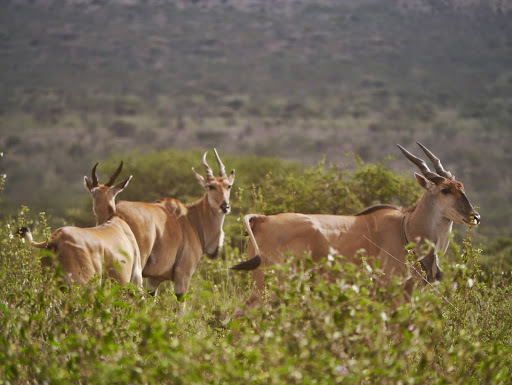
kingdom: Animalia
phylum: Chordata
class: Mammalia
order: Artiodactyla
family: Bovidae
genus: Taurotragus
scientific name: Taurotragus oryx
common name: Common eland
